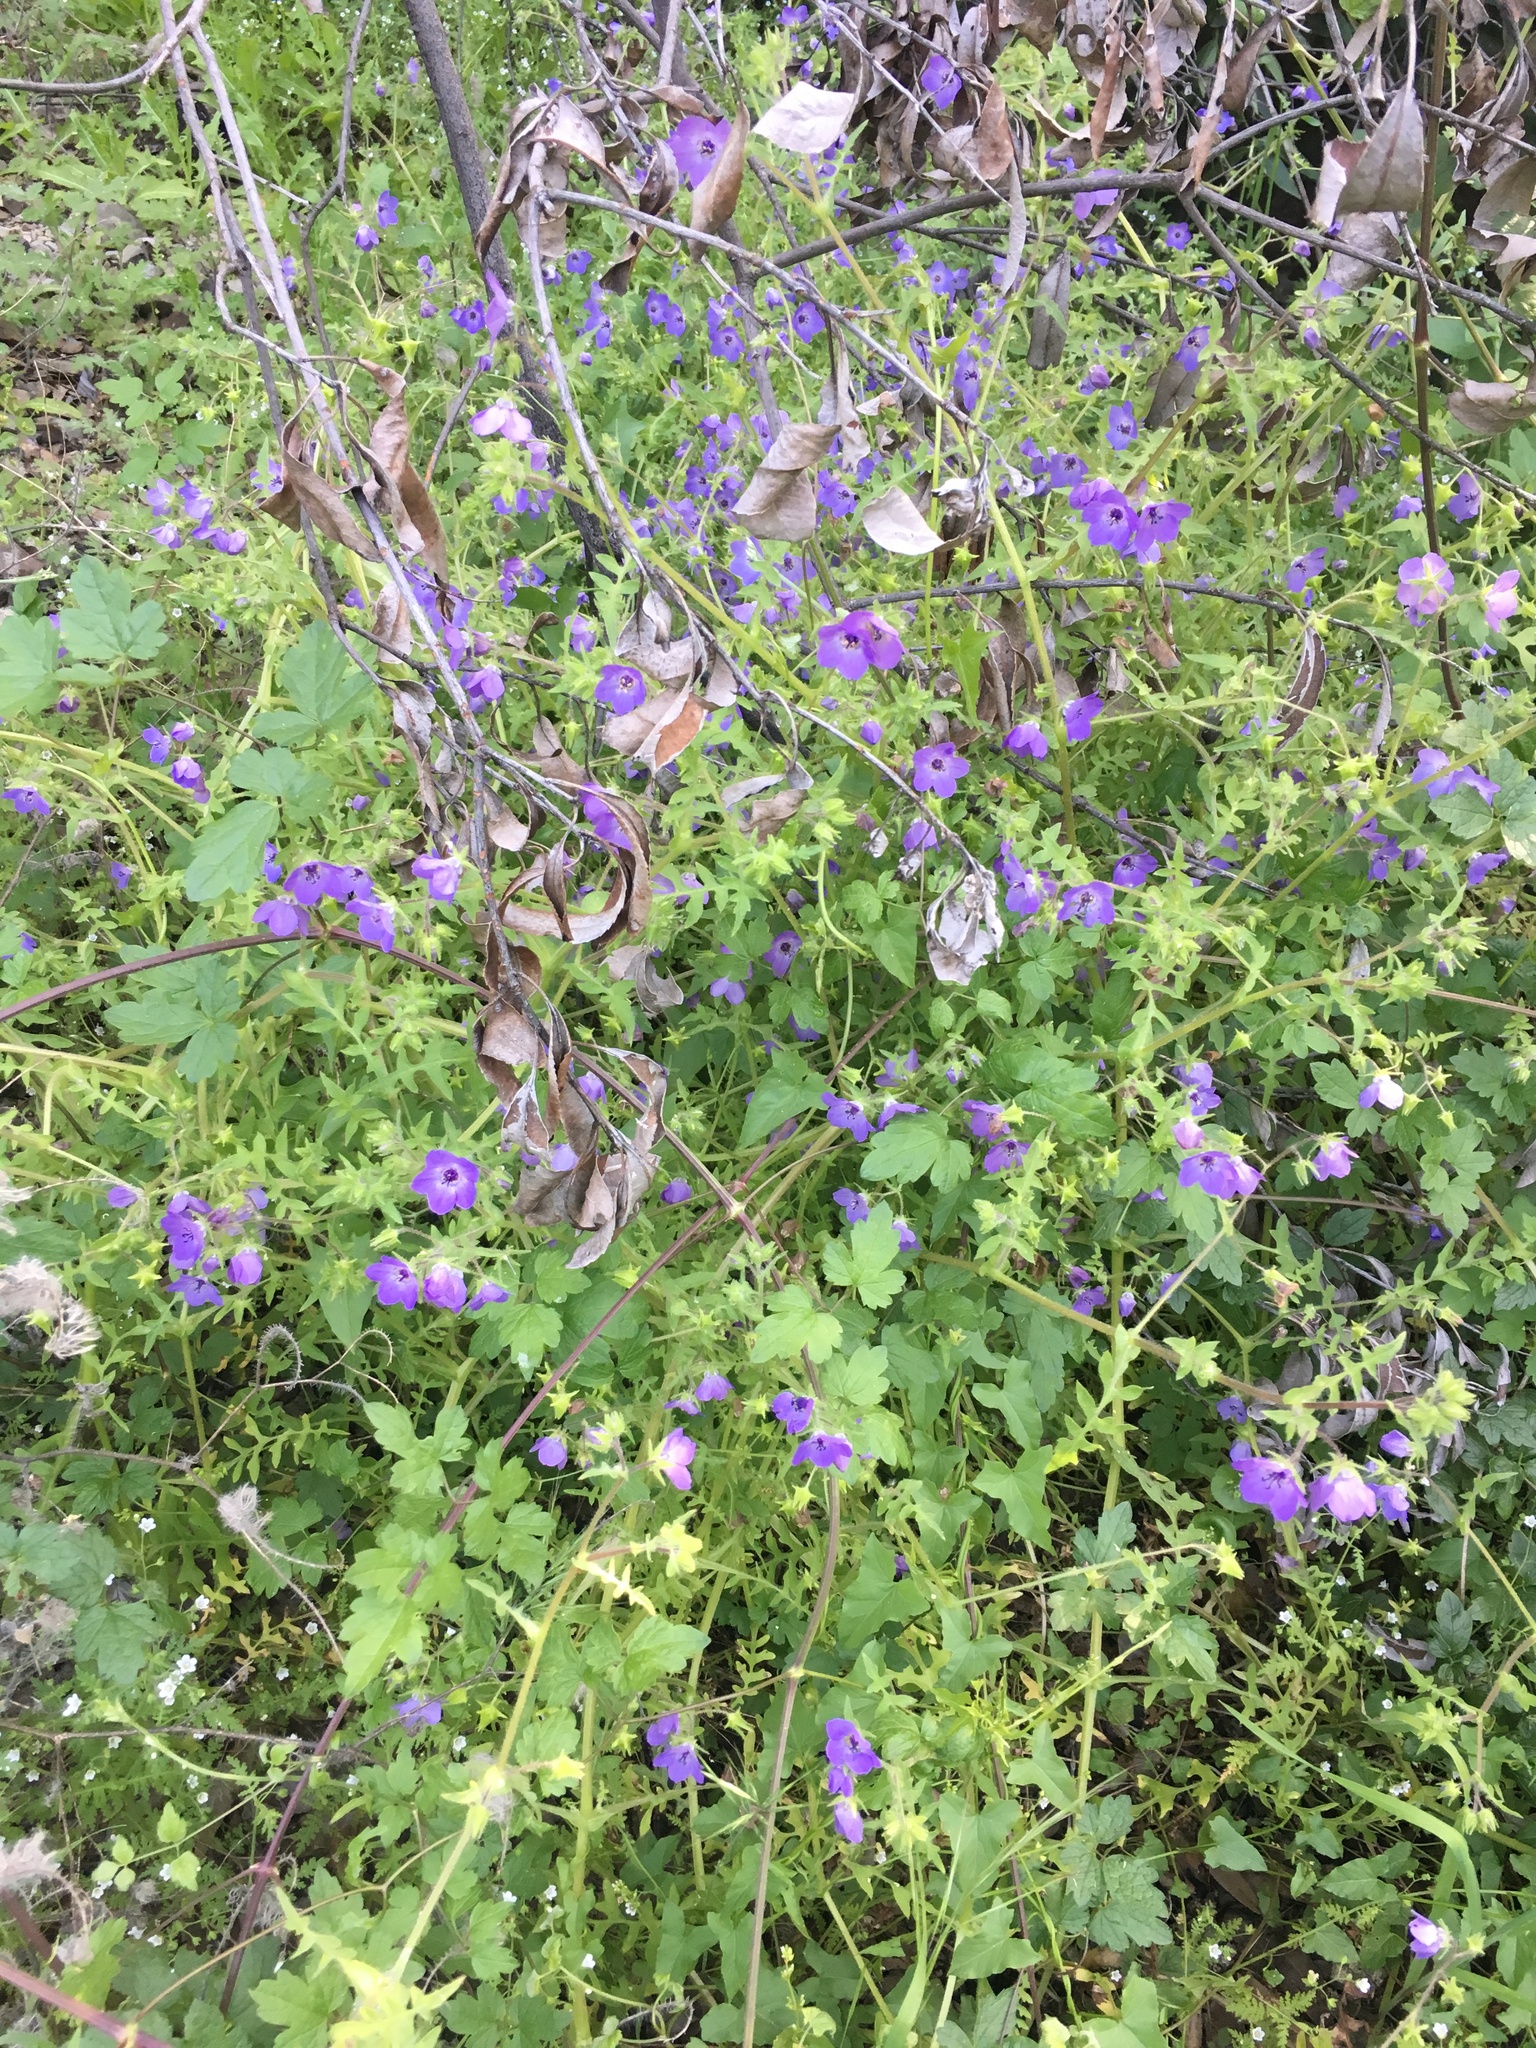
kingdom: Plantae
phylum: Tracheophyta
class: Magnoliopsida
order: Boraginales
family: Hydrophyllaceae
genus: Pholistoma
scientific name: Pholistoma auritum
